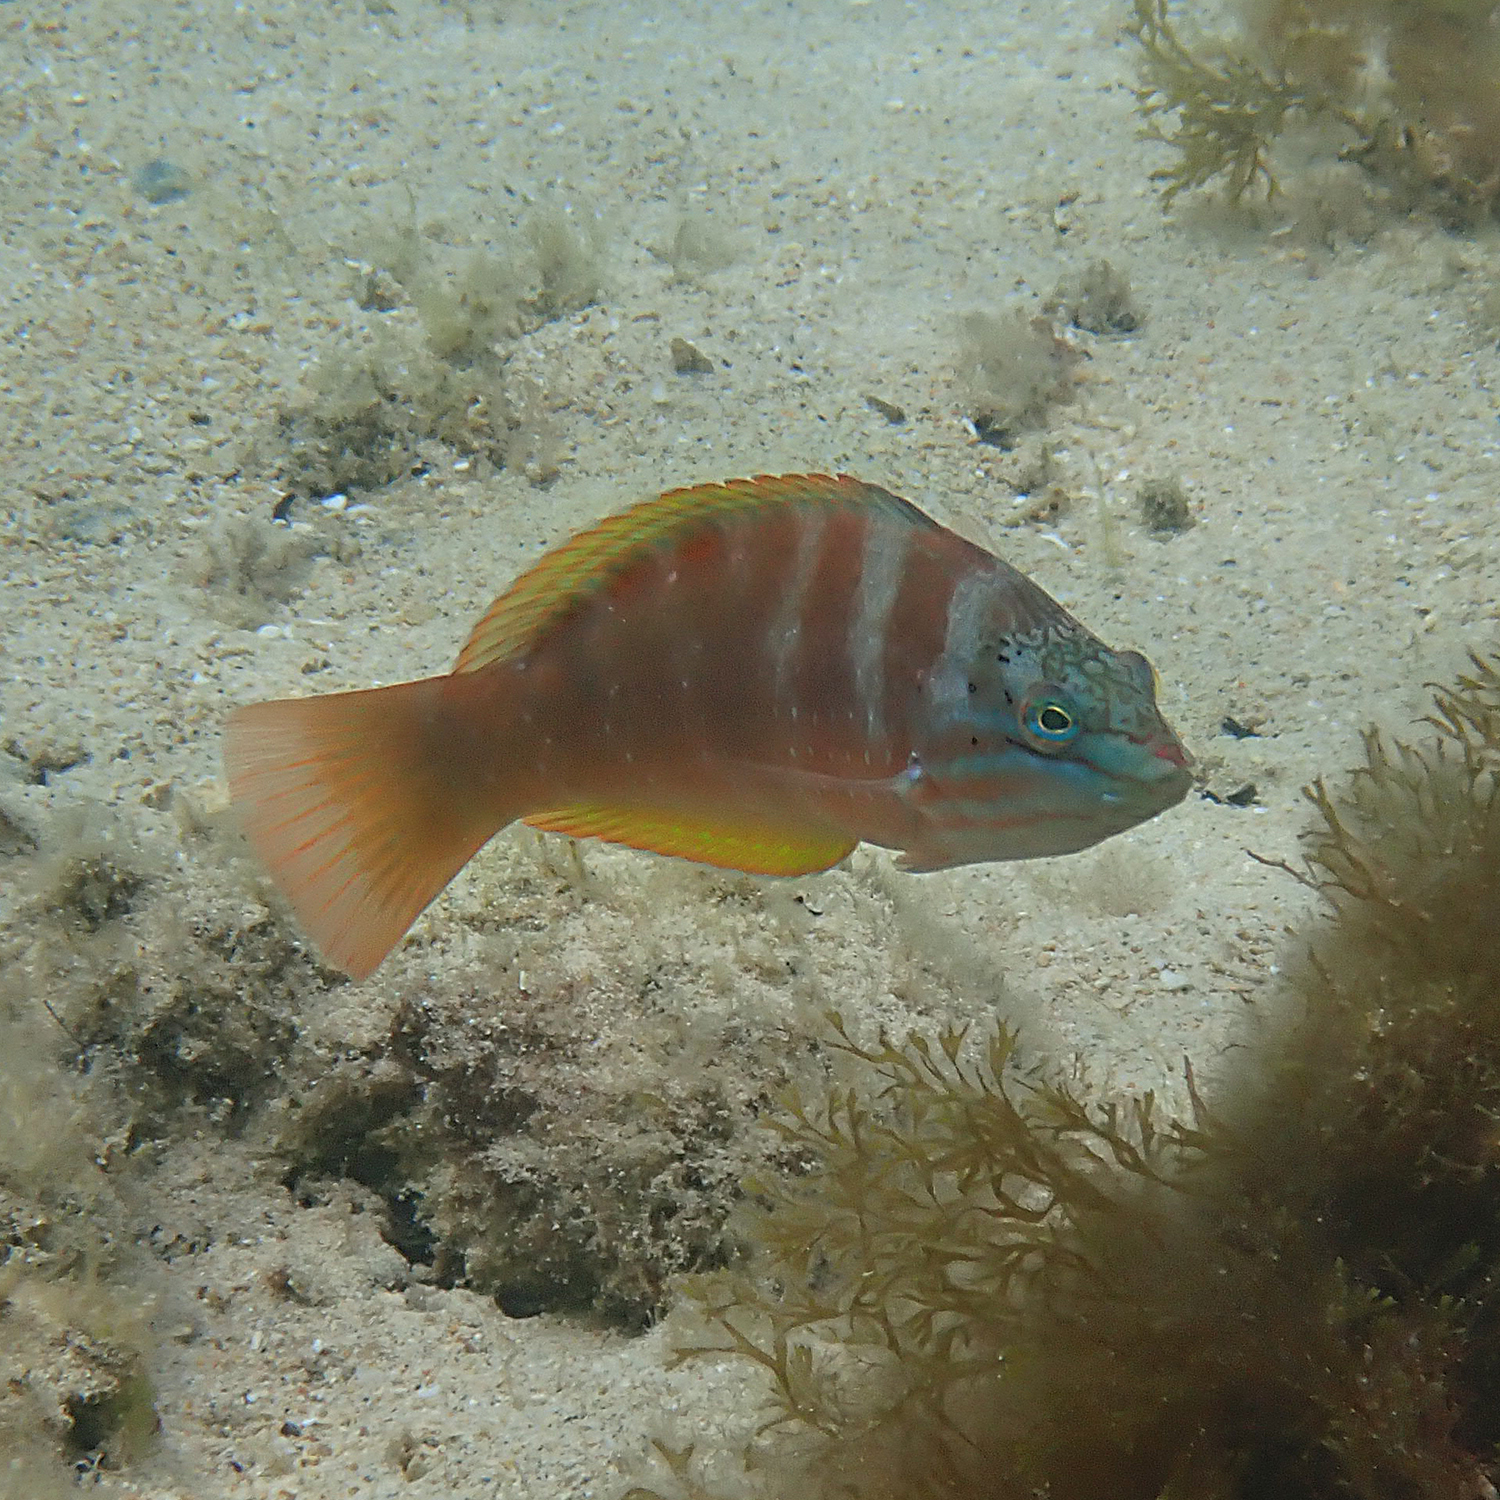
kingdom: Animalia
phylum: Chordata
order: Perciformes
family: Labridae
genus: Pseudolabrus
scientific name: Pseudolabrus luculentus
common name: Luculentus wrasse
